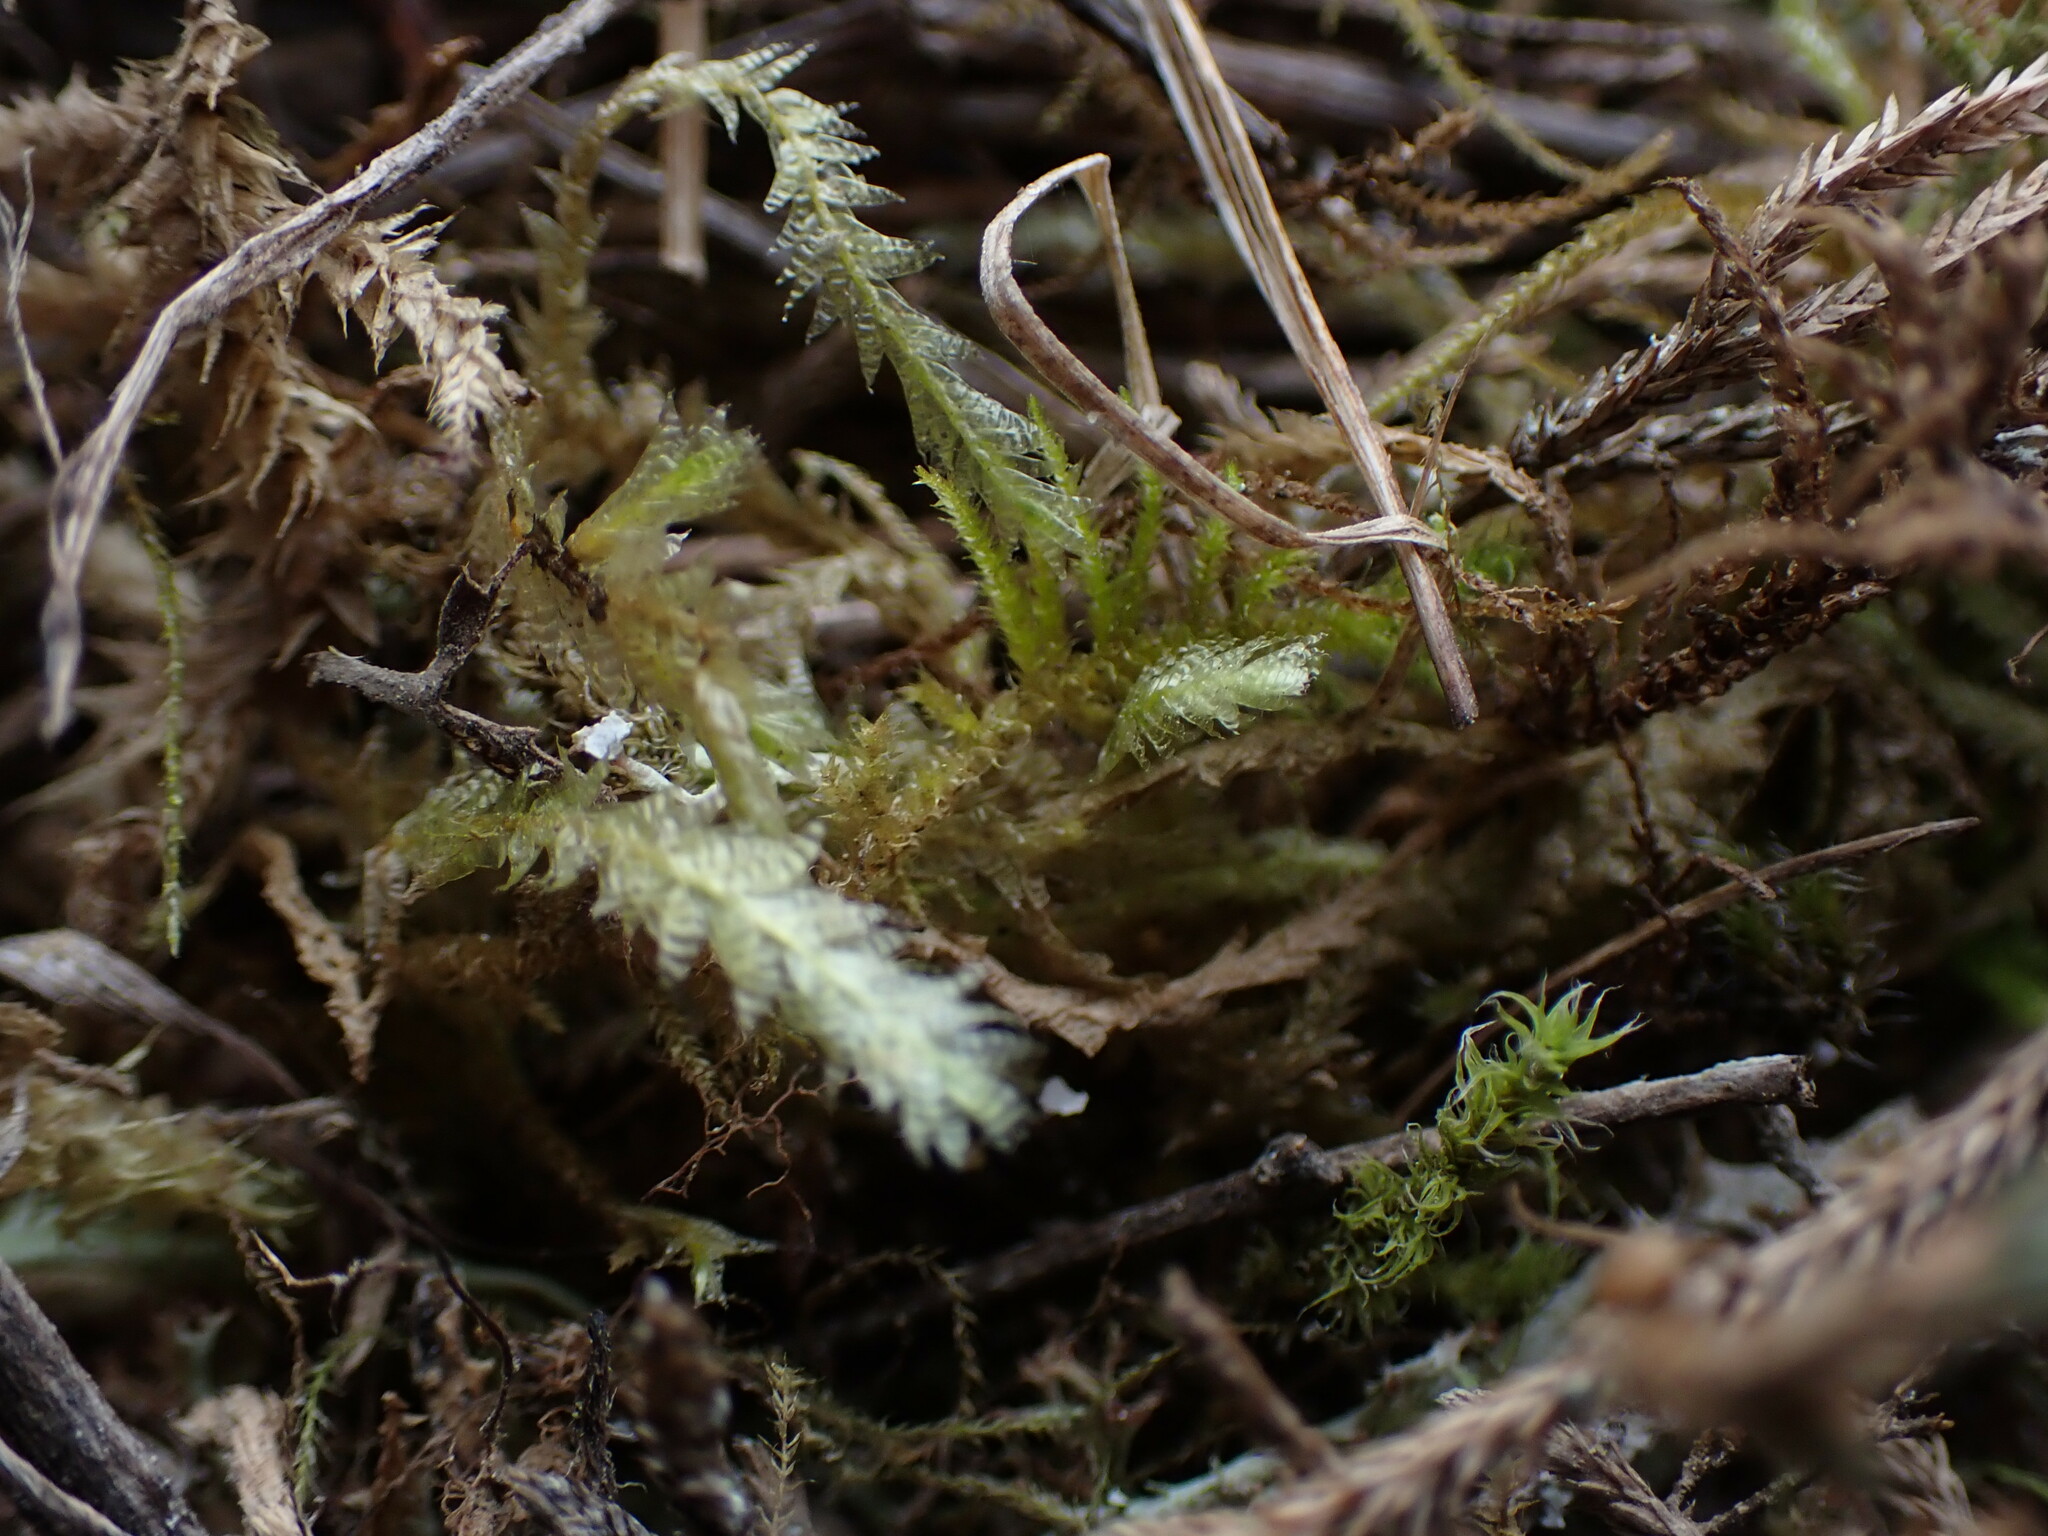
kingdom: Plantae
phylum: Bryophyta
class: Bryopsida
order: Hypnales
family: Neckeraceae
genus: Neckera
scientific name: Neckera douglasii
